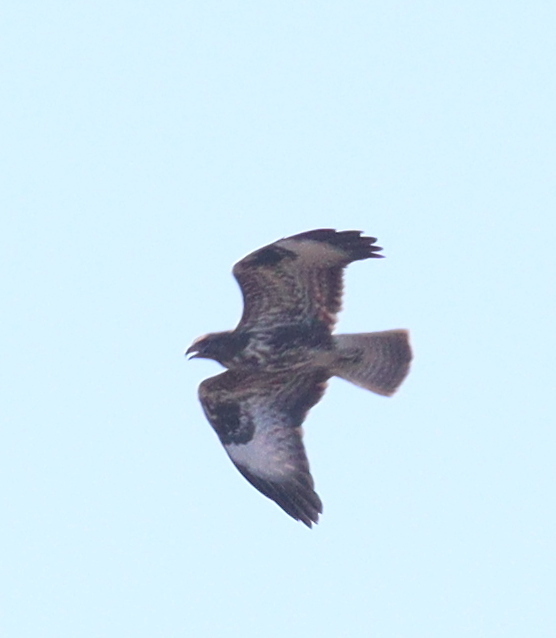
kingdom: Animalia
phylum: Chordata
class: Aves
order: Accipitriformes
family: Accipitridae
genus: Buteo
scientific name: Buteo buteo
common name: Common buzzard
